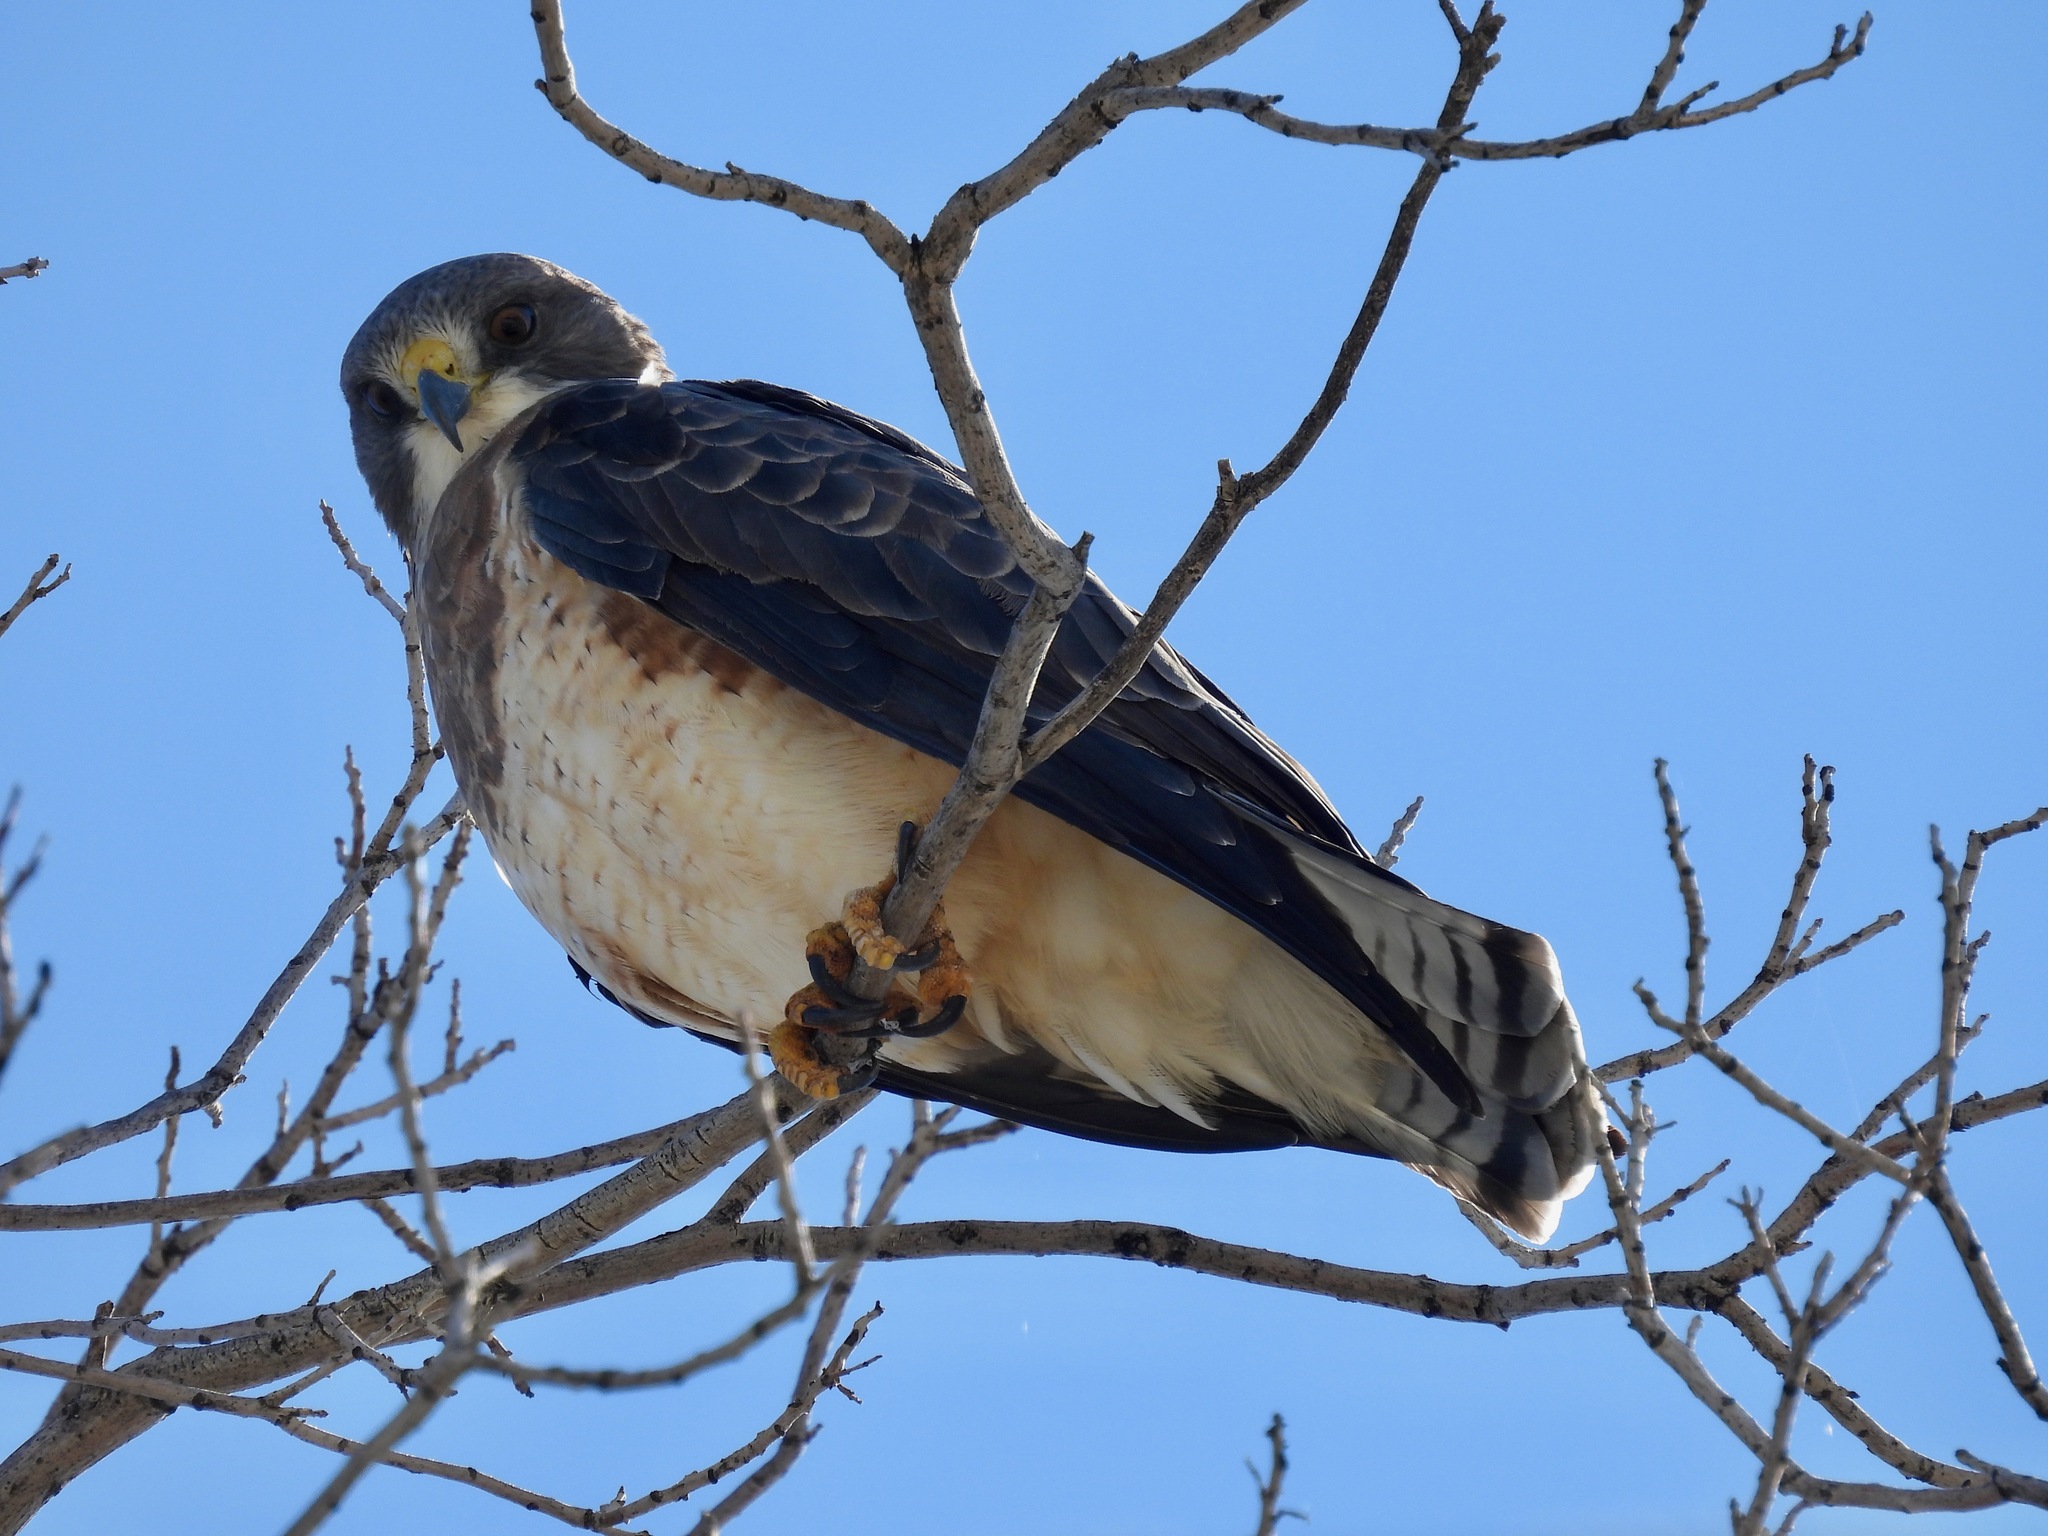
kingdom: Animalia
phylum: Chordata
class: Aves
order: Accipitriformes
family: Accipitridae
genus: Buteo
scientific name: Buteo swainsoni
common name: Swainson's hawk
